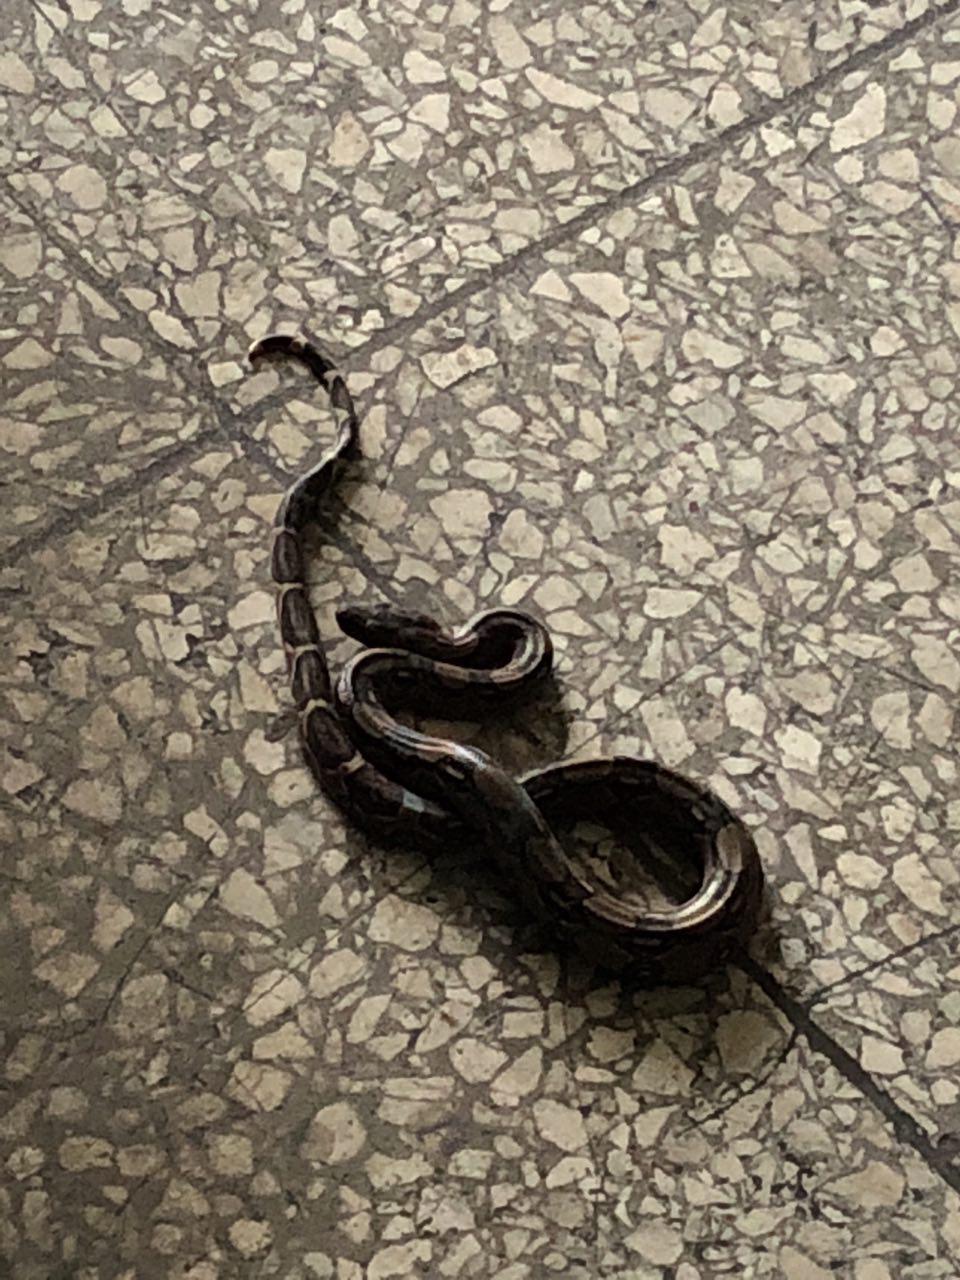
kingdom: Animalia
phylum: Chordata
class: Squamata
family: Boidae
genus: Boa
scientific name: Boa imperator
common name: Central american boa
